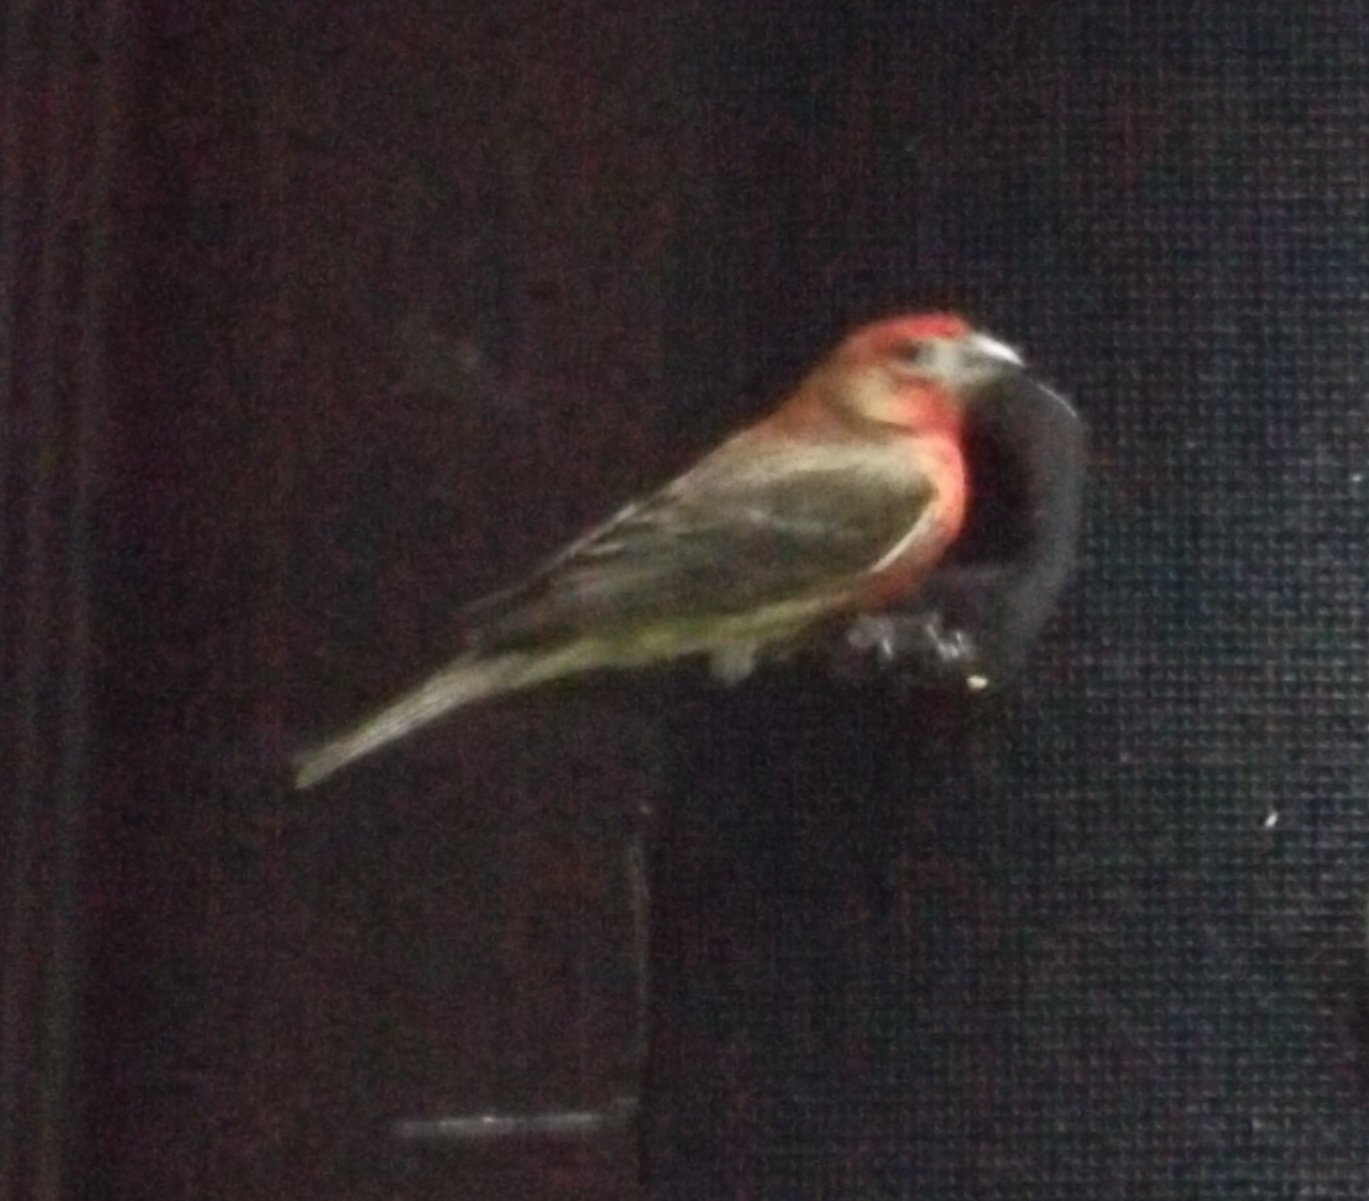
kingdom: Animalia
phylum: Chordata
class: Aves
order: Passeriformes
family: Fringillidae
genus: Haemorhous
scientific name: Haemorhous mexicanus
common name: House finch
